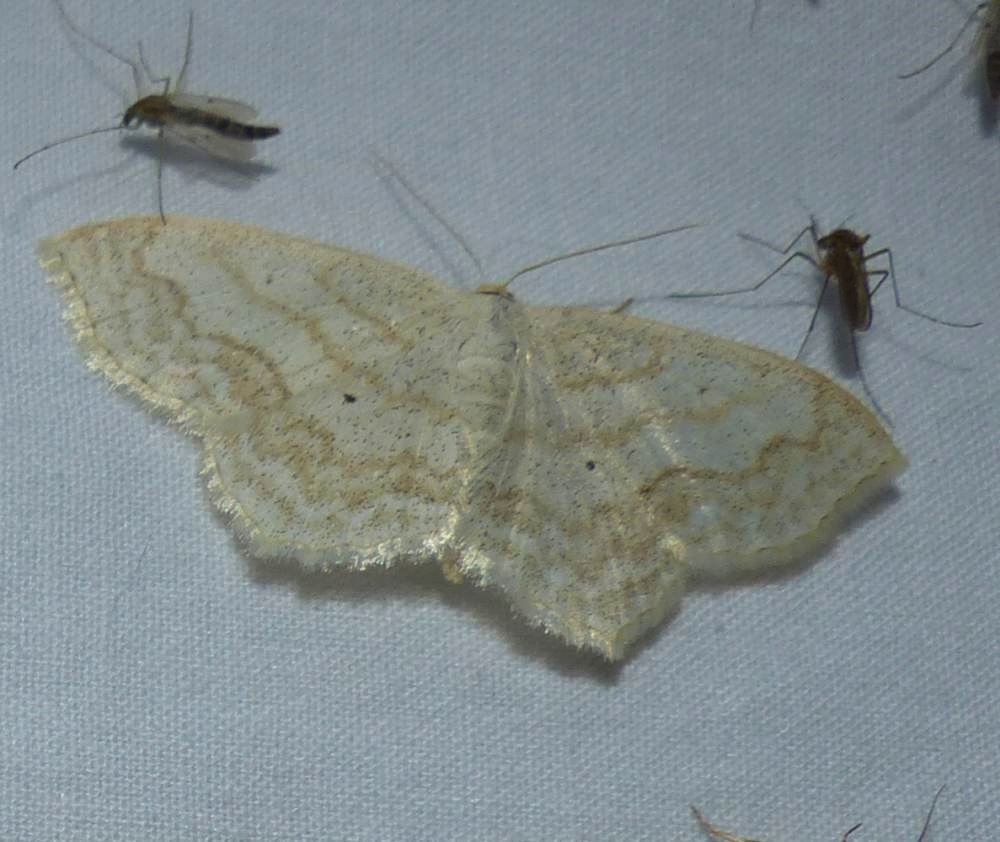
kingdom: Animalia
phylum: Arthropoda
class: Insecta
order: Lepidoptera
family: Geometridae
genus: Scopula
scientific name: Scopula limboundata
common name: Large lace border
